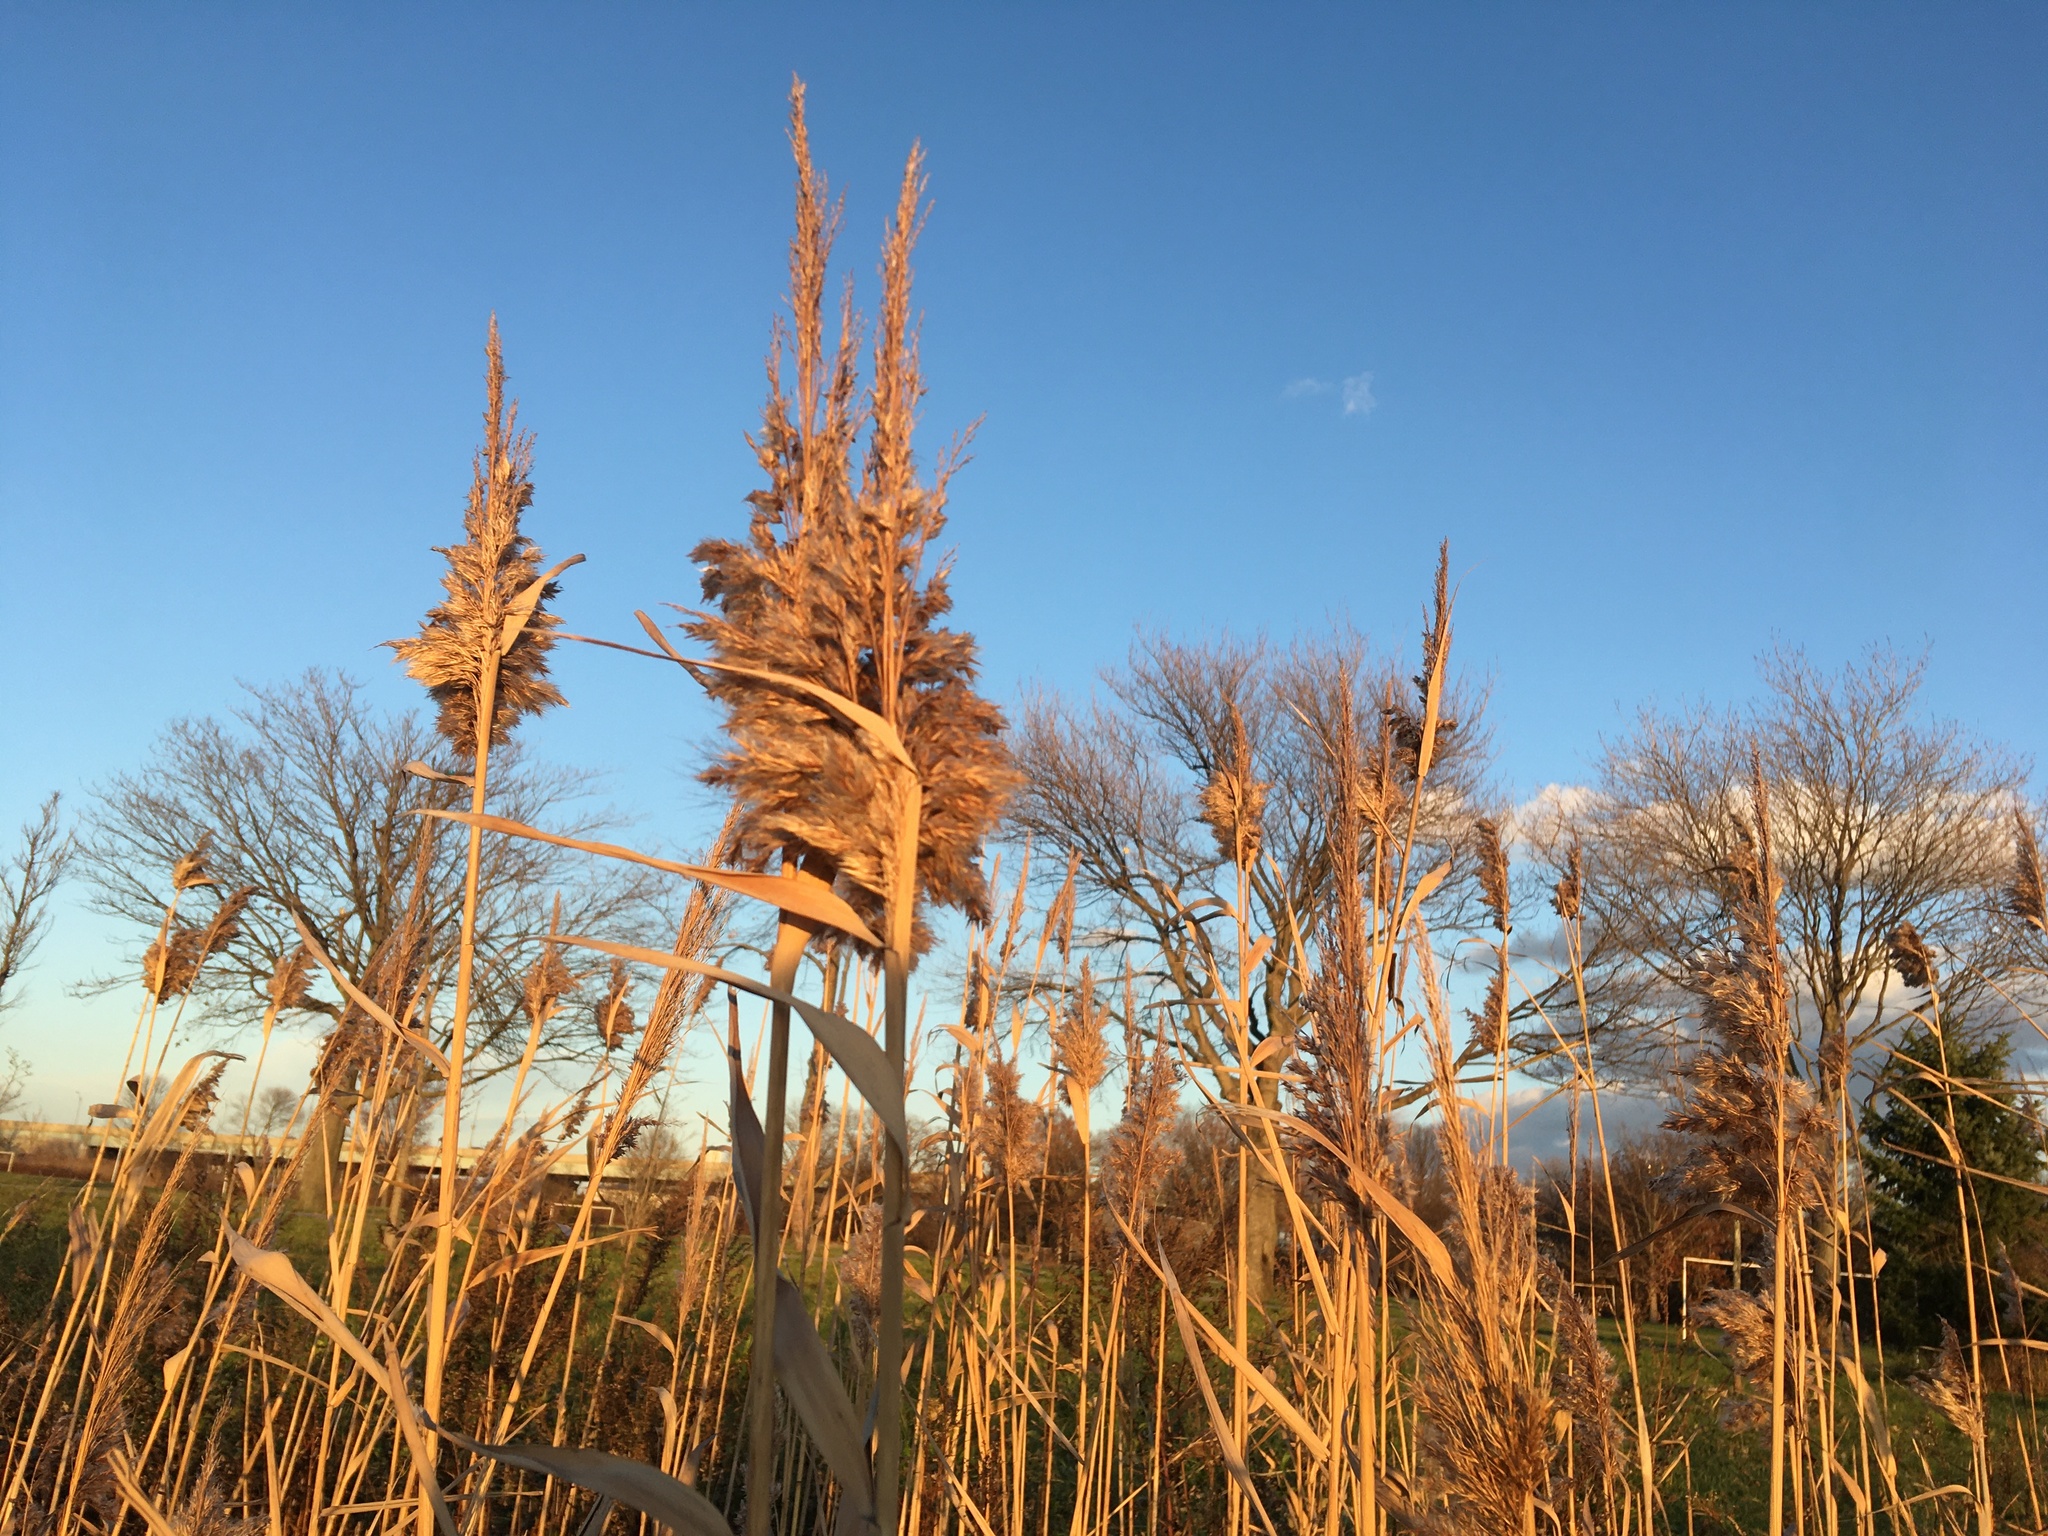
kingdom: Plantae
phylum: Tracheophyta
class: Liliopsida
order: Poales
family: Poaceae
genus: Phragmites
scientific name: Phragmites australis
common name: Common reed
